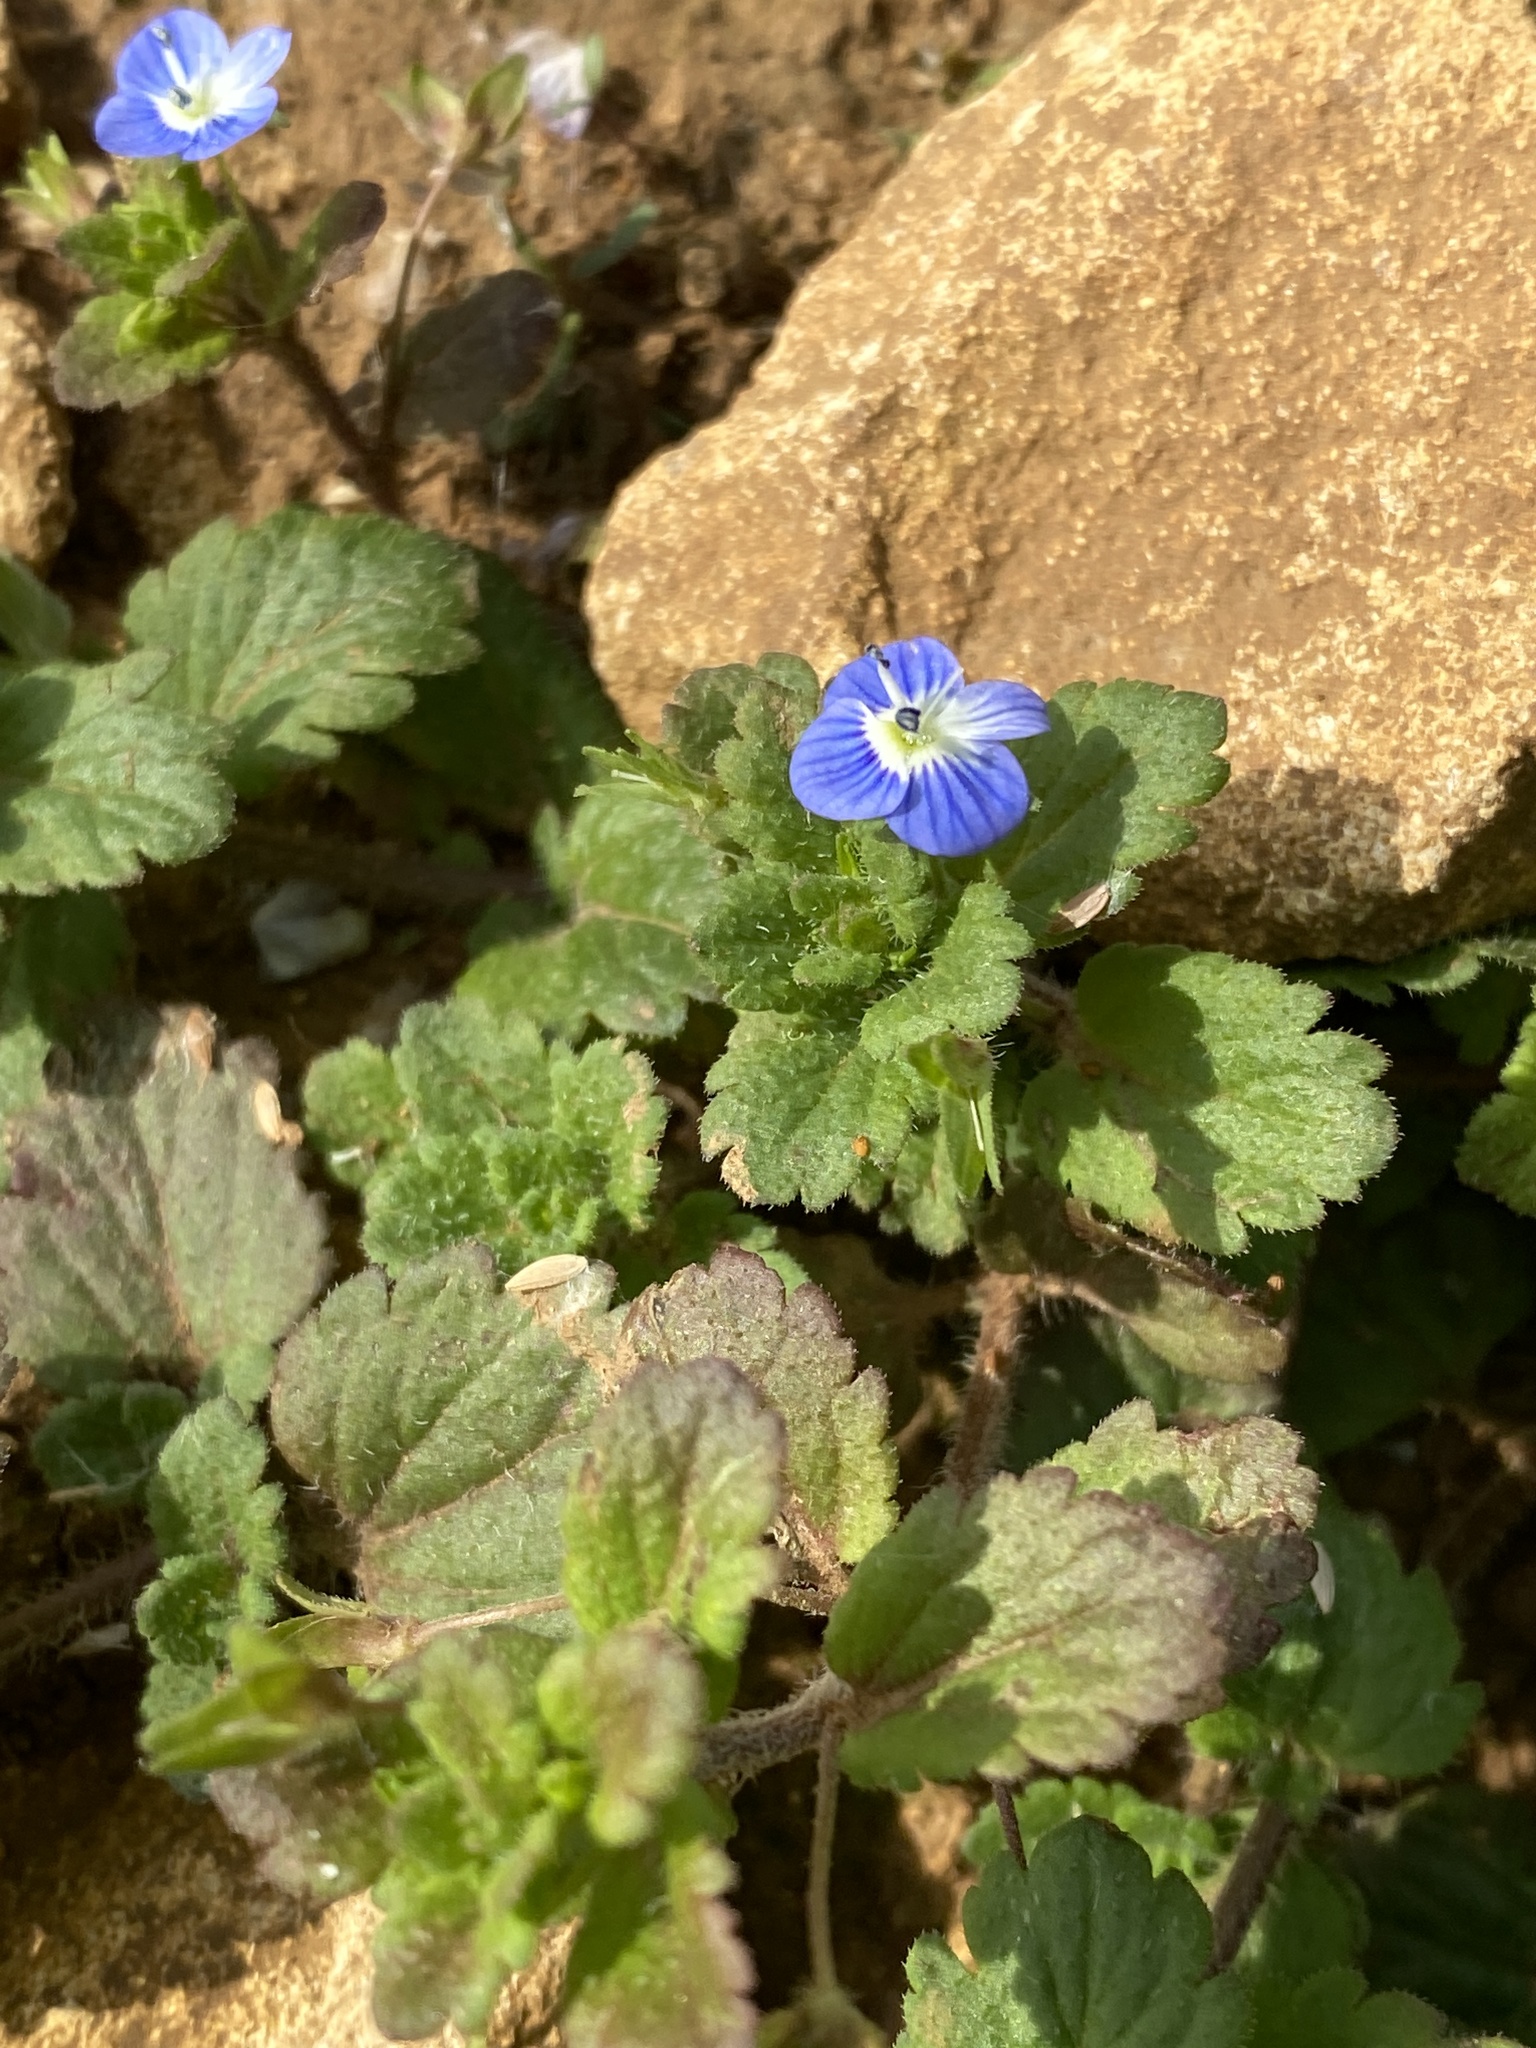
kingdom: Plantae
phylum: Tracheophyta
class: Magnoliopsida
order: Lamiales
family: Plantaginaceae
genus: Veronica
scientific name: Veronica persica
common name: Common field-speedwell
